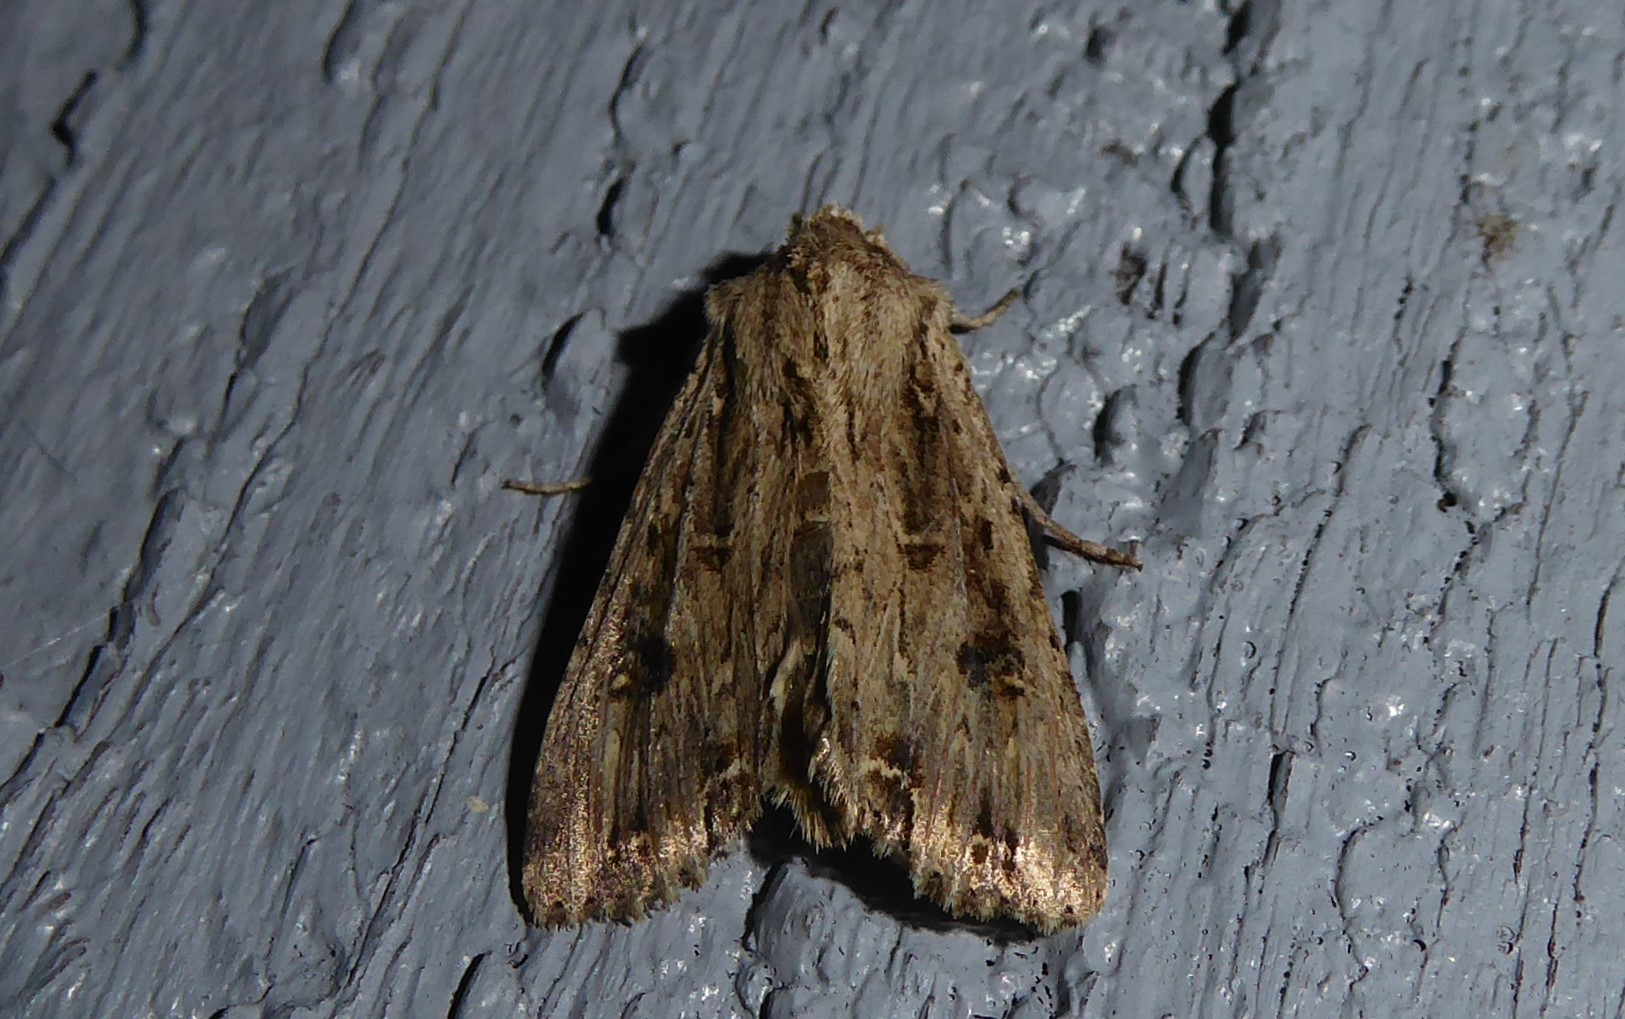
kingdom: Animalia
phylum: Arthropoda
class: Insecta
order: Lepidoptera
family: Noctuidae
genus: Ichneutica
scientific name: Ichneutica lignana
